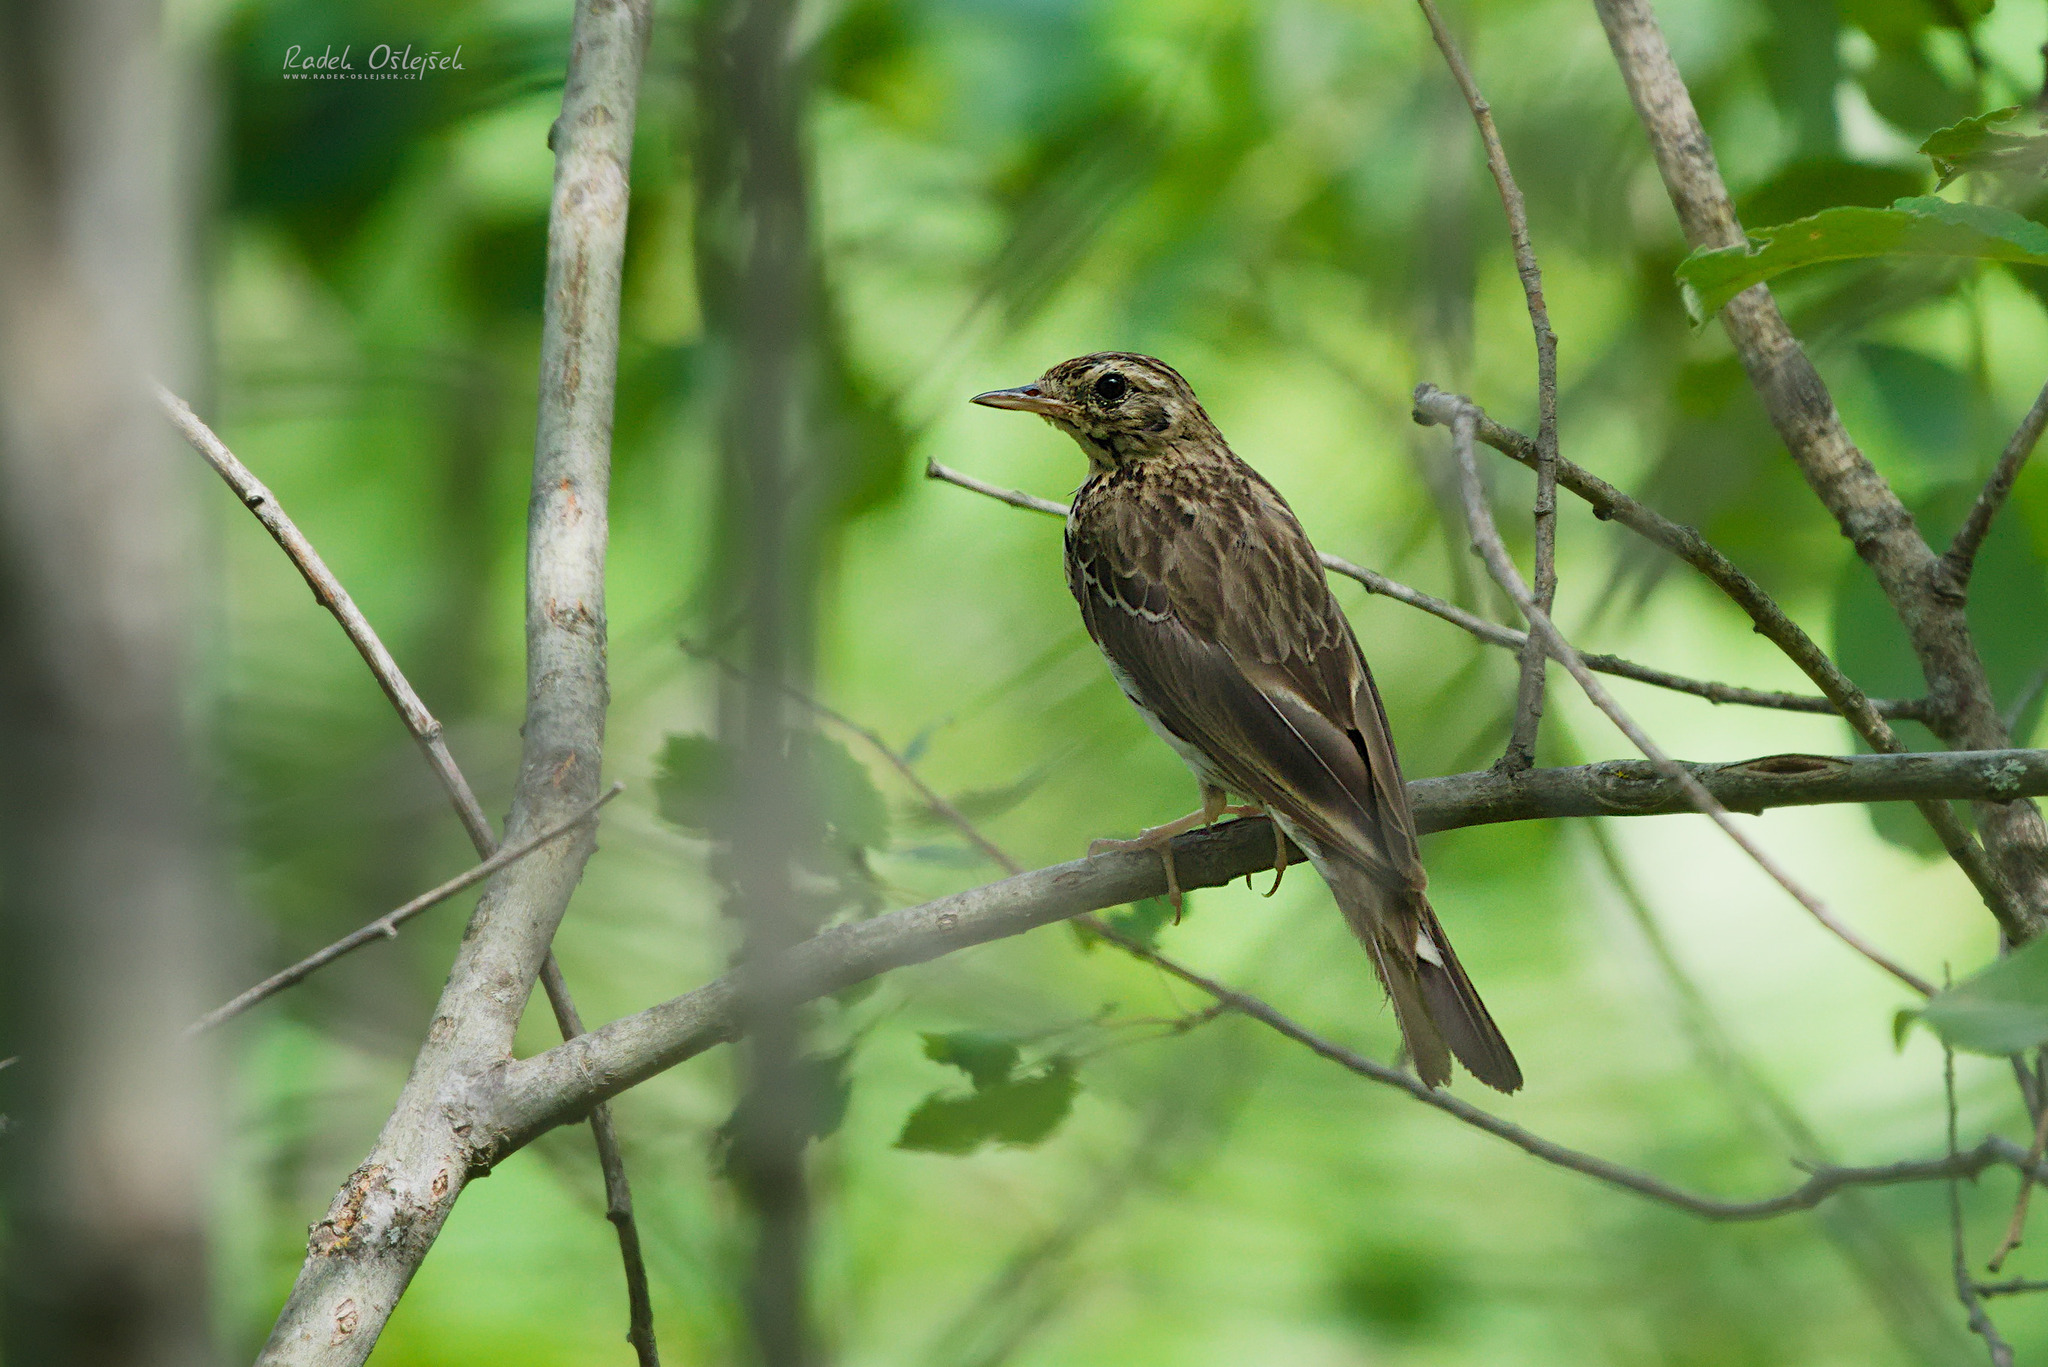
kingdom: Animalia
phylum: Chordata
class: Aves
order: Passeriformes
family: Motacillidae
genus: Anthus
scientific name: Anthus trivialis
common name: Tree pipit
